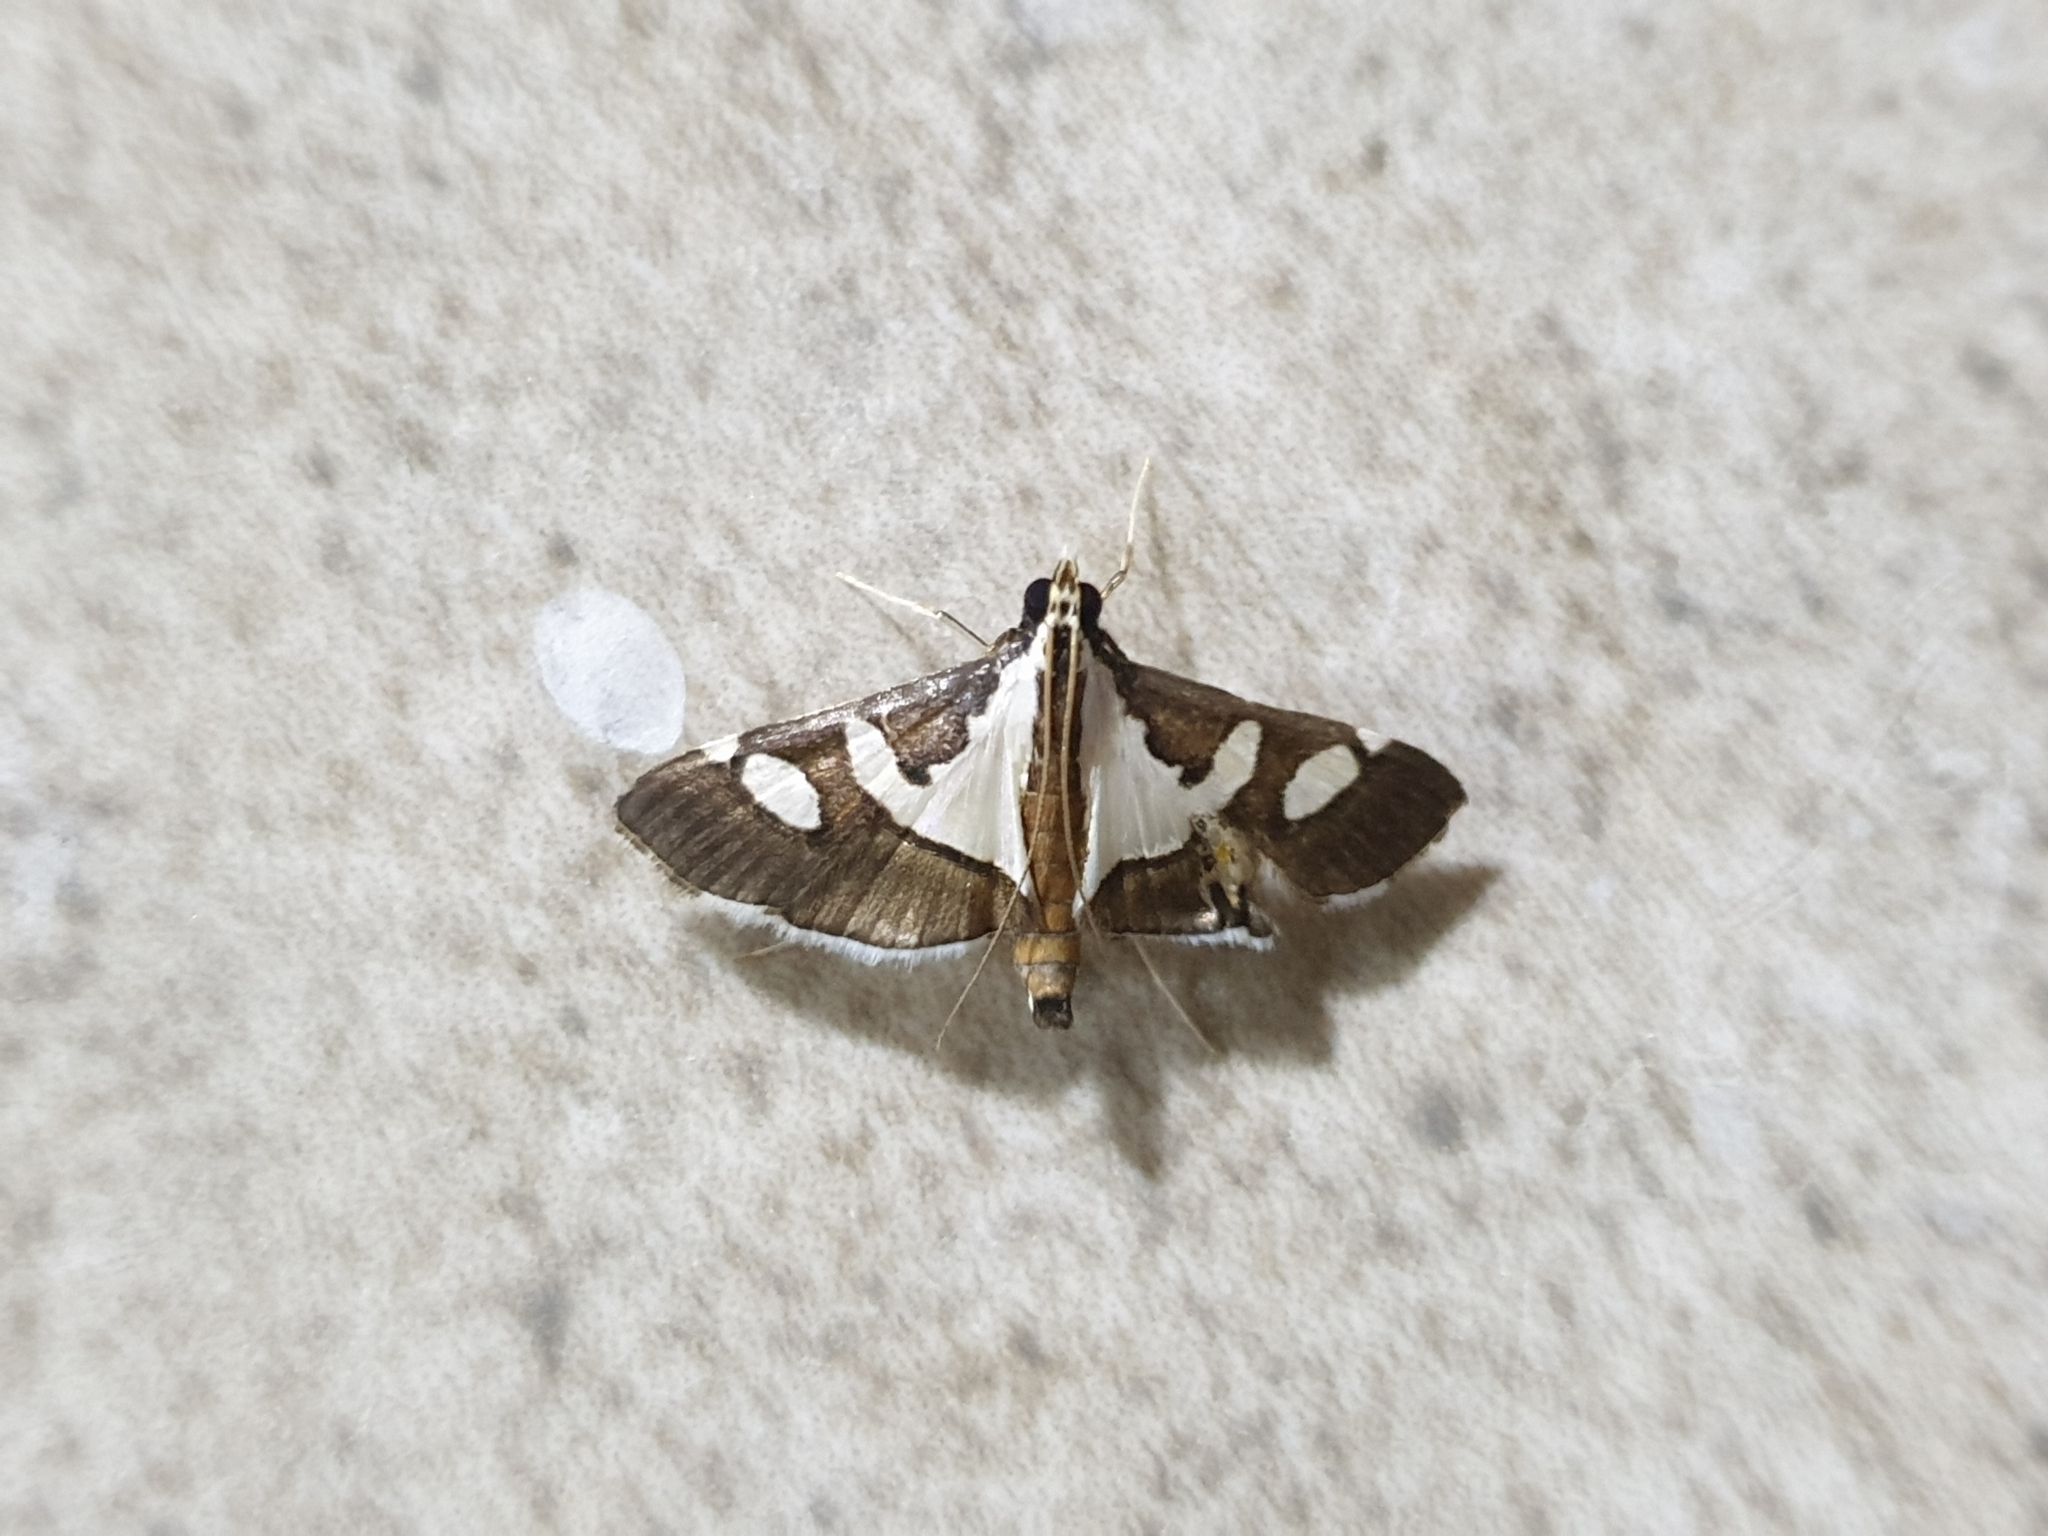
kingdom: Animalia
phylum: Arthropoda
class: Insecta
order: Lepidoptera
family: Crambidae
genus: Glyphodes
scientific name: Glyphodes bicolor
